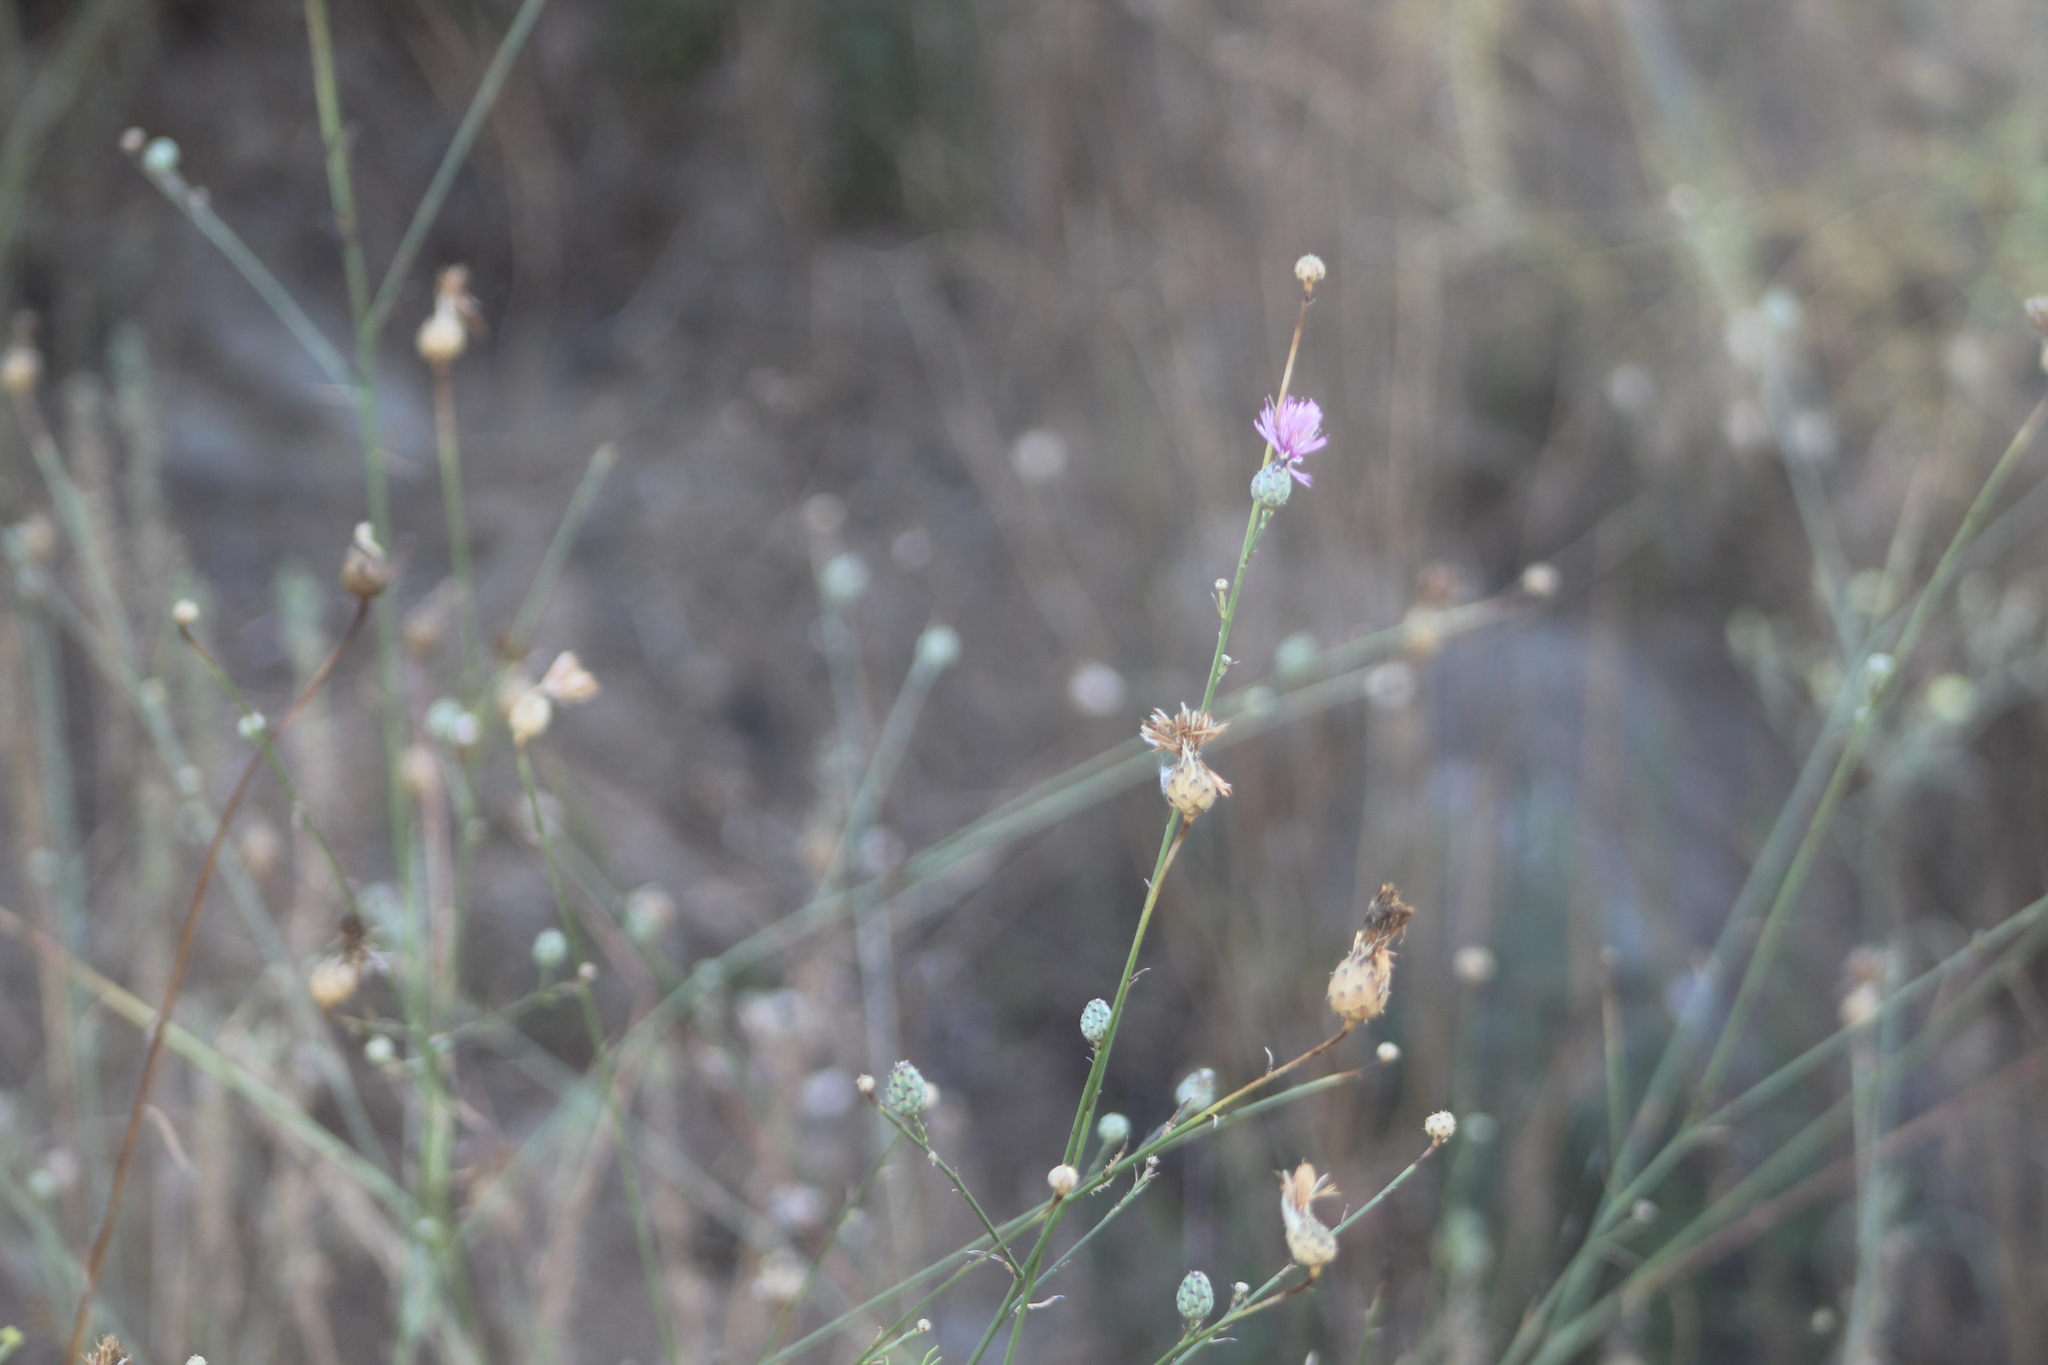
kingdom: Plantae
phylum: Tracheophyta
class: Magnoliopsida
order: Asterales
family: Asteraceae
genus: Mantisalca
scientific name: Mantisalca salmantica
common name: Dagger flower
